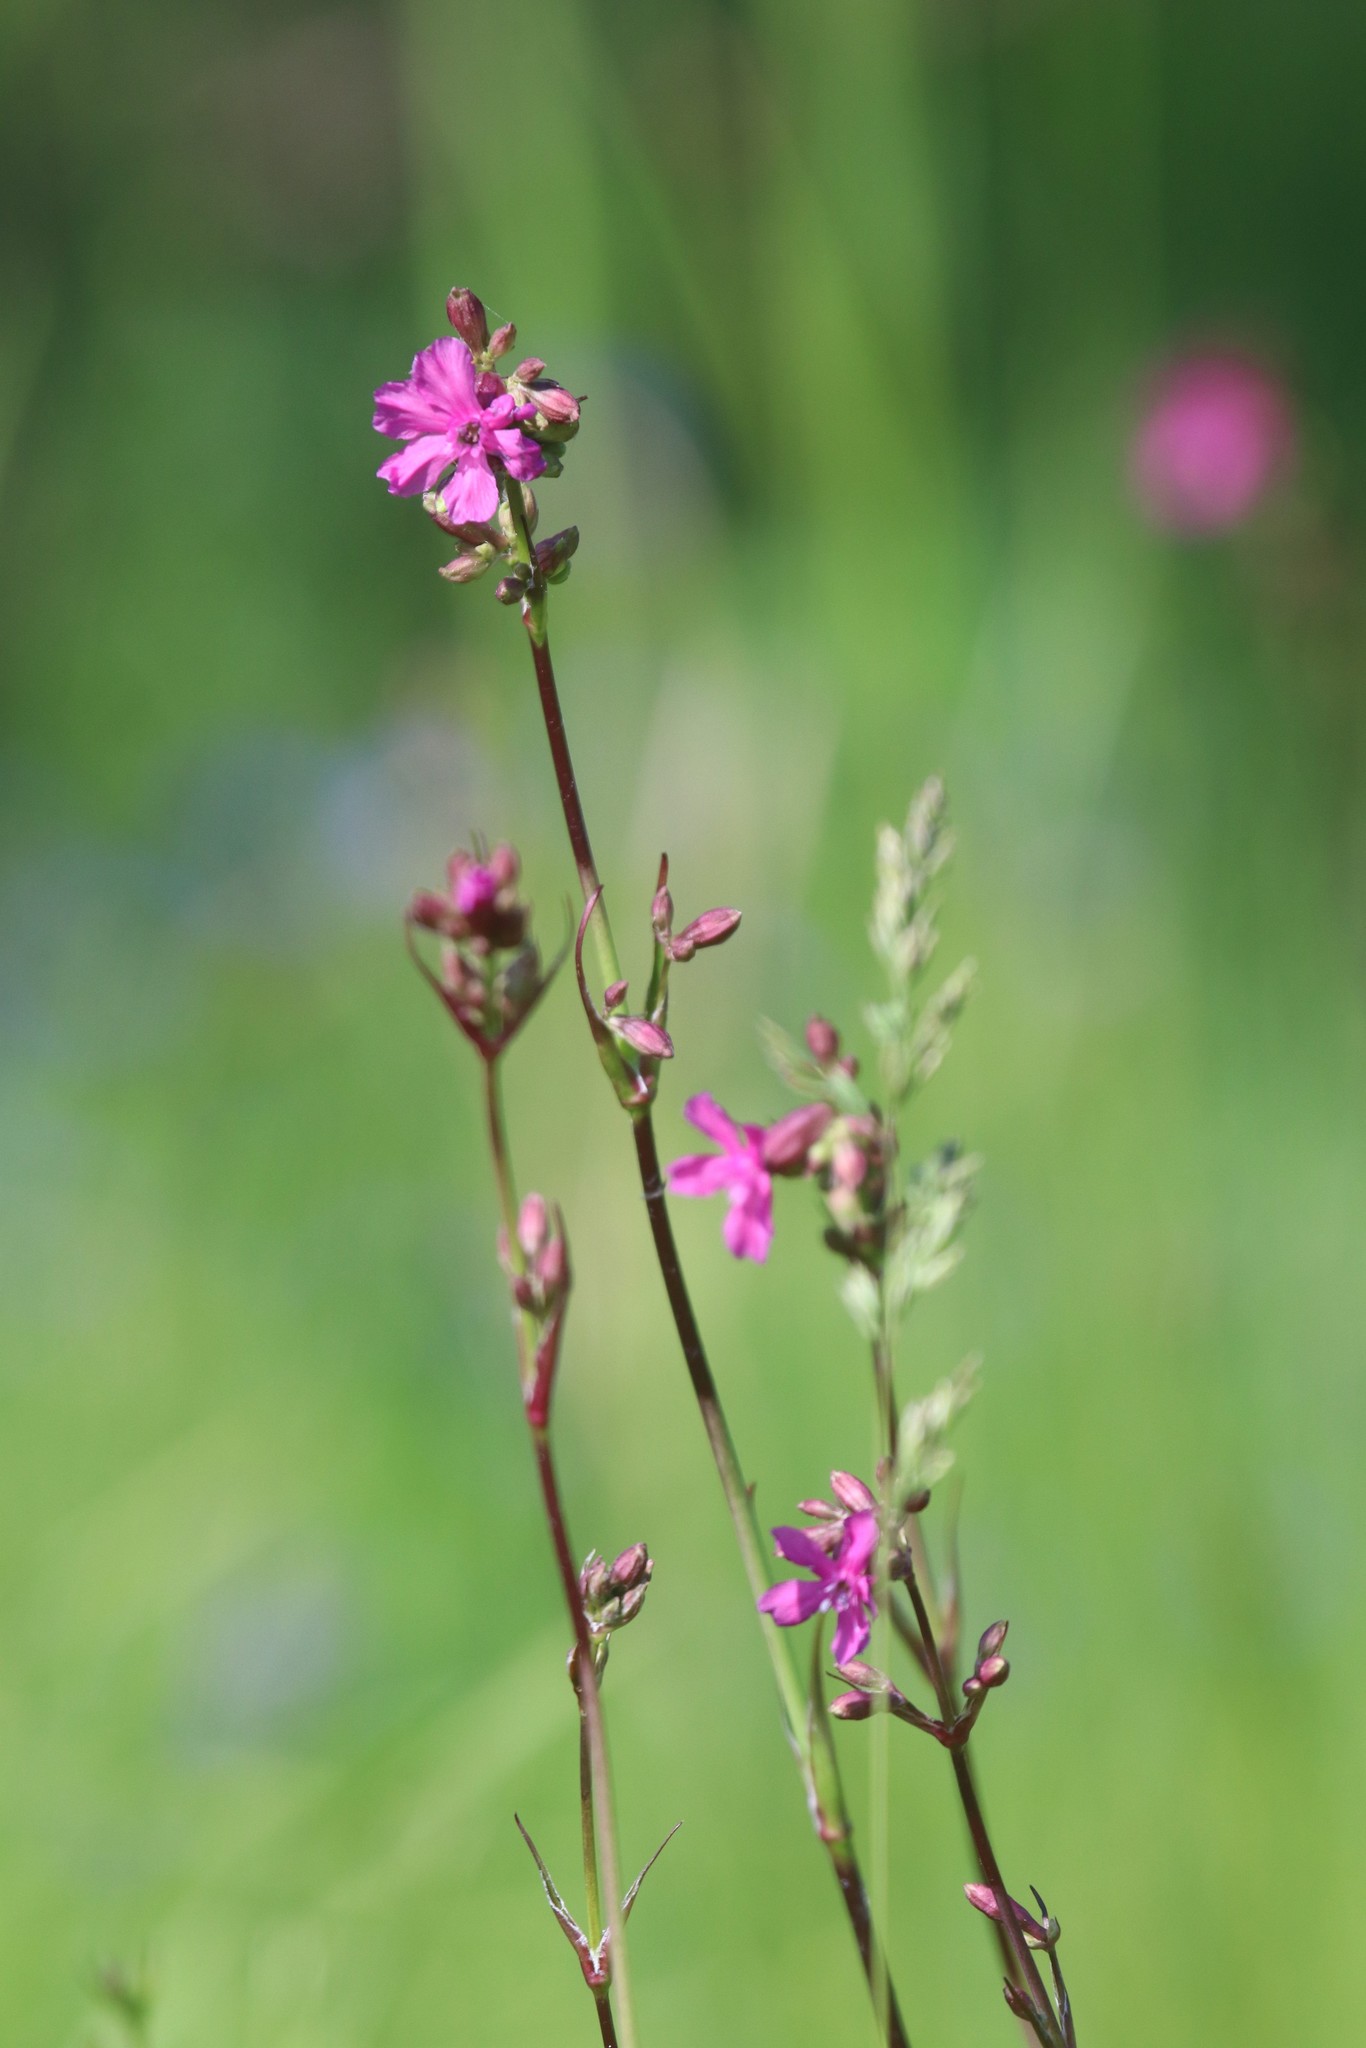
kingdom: Plantae
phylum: Tracheophyta
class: Magnoliopsida
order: Caryophyllales
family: Caryophyllaceae
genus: Viscaria
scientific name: Viscaria vulgaris
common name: Clammy campion
